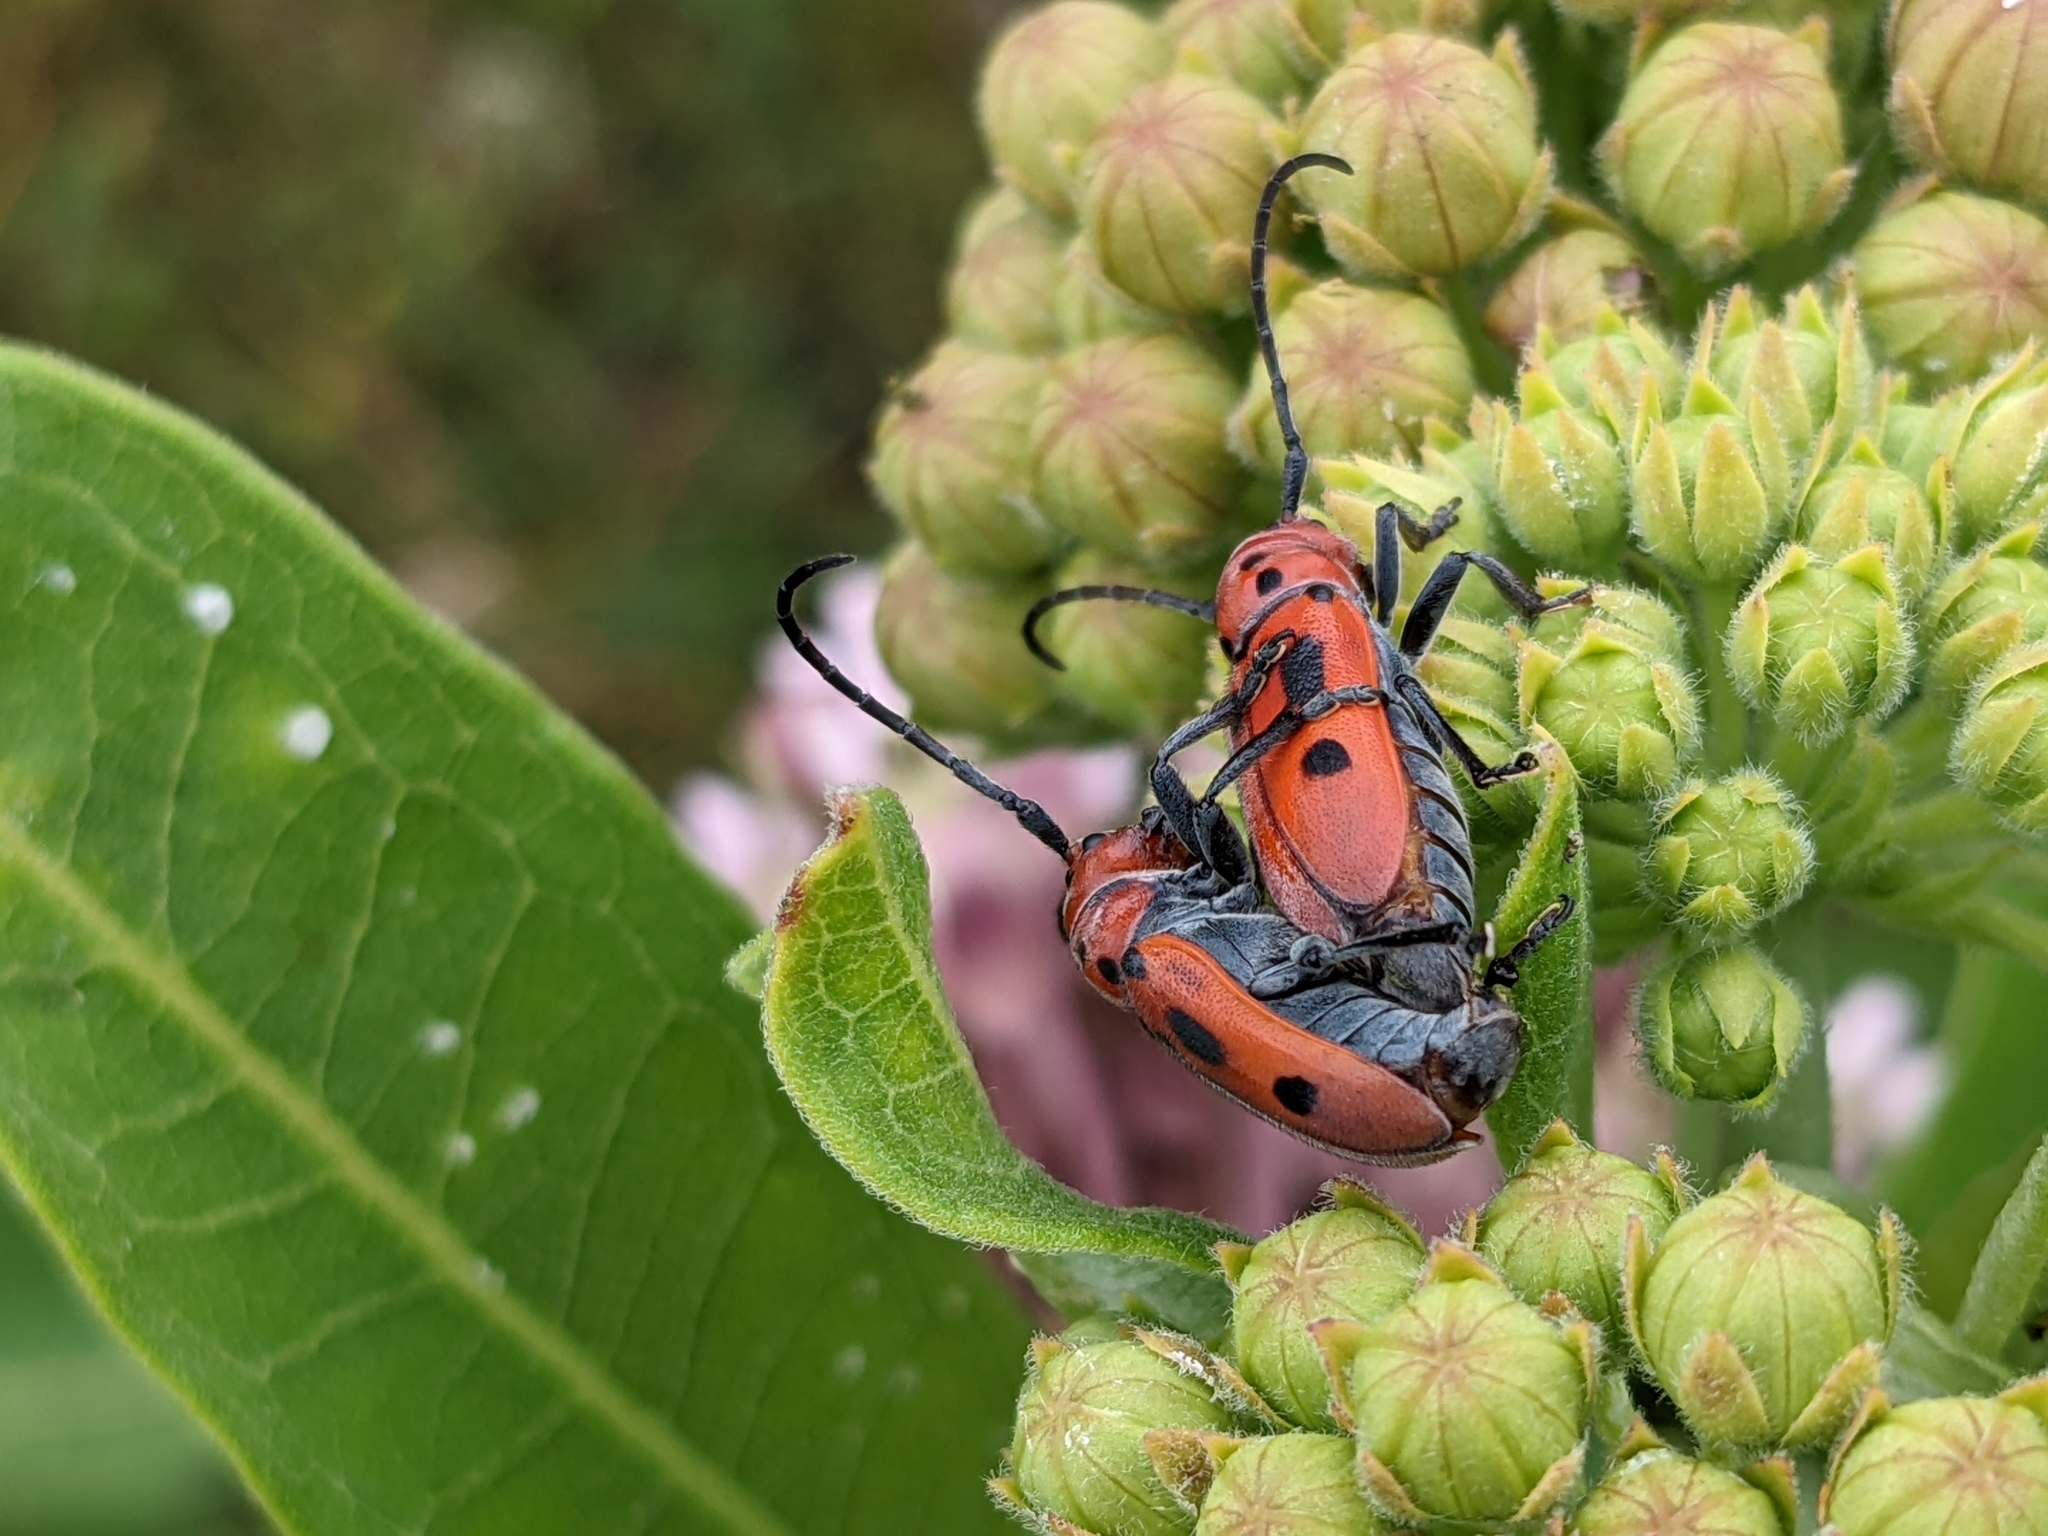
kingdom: Animalia
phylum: Arthropoda
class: Insecta
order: Coleoptera
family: Cerambycidae
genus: Tetraopes
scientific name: Tetraopes tetrophthalmus
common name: Red milkweed beetle
